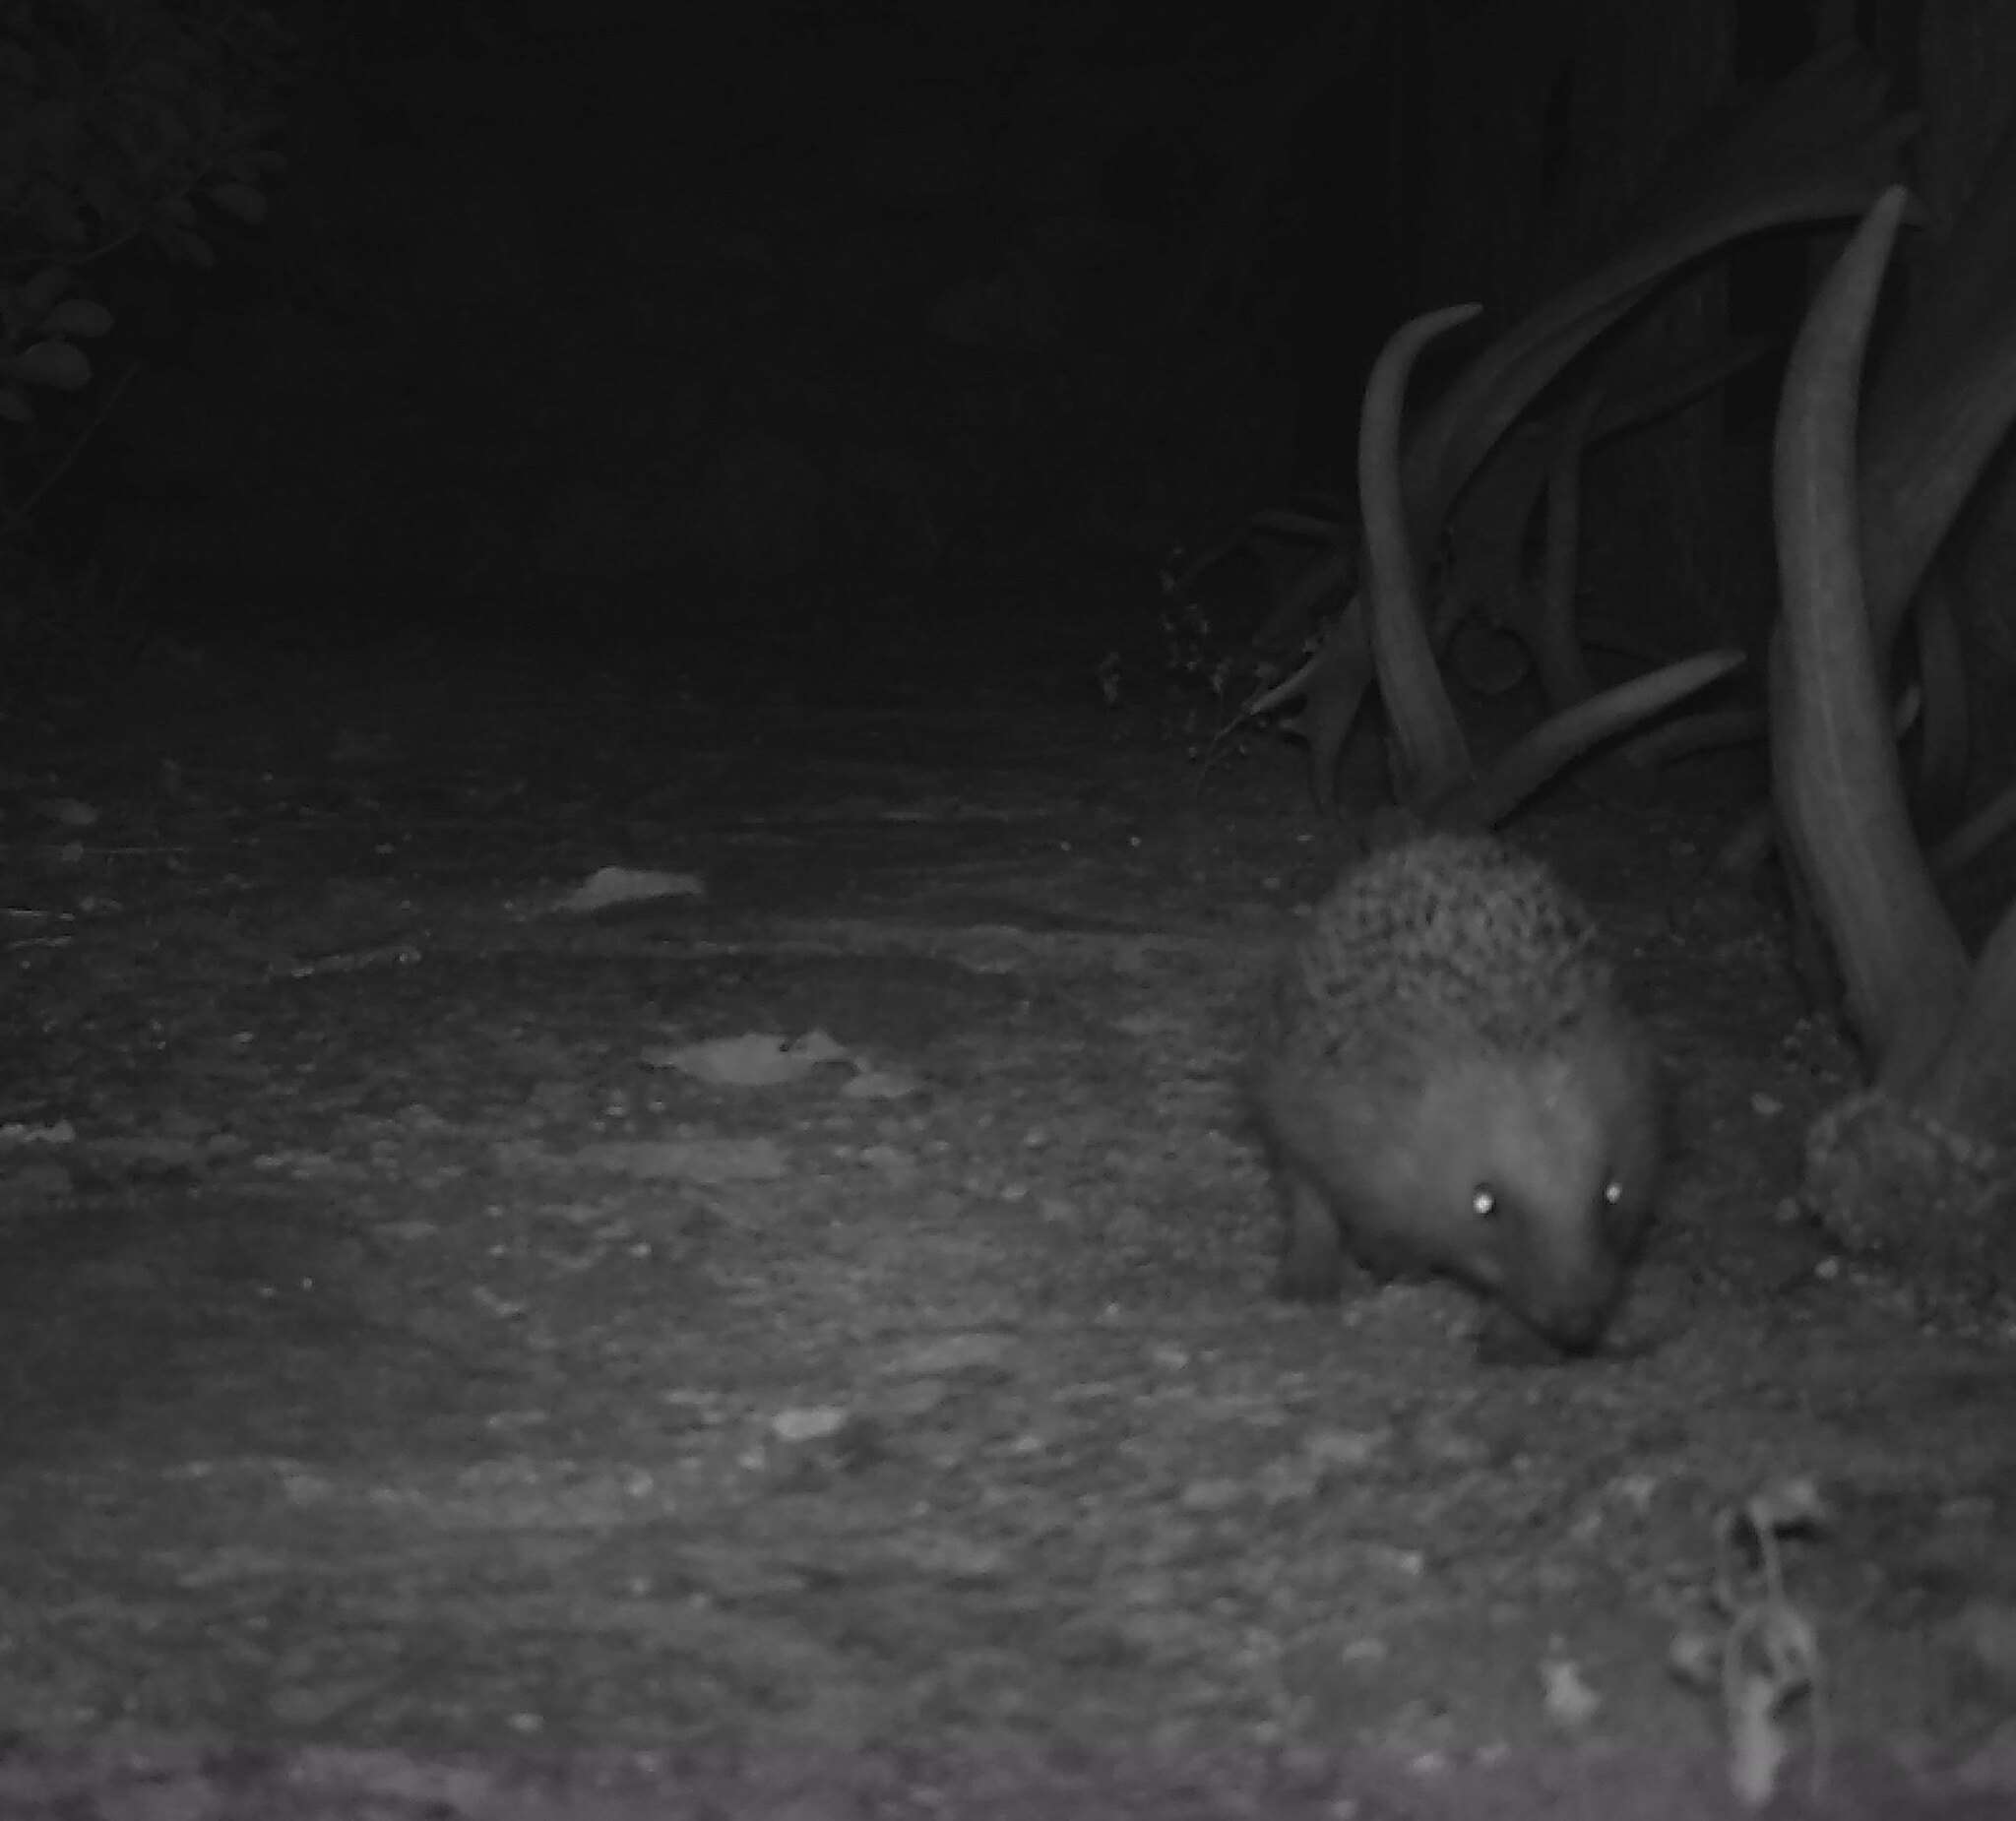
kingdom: Animalia
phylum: Chordata
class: Mammalia
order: Erinaceomorpha
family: Erinaceidae
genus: Erinaceus
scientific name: Erinaceus europaeus
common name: West european hedgehog
